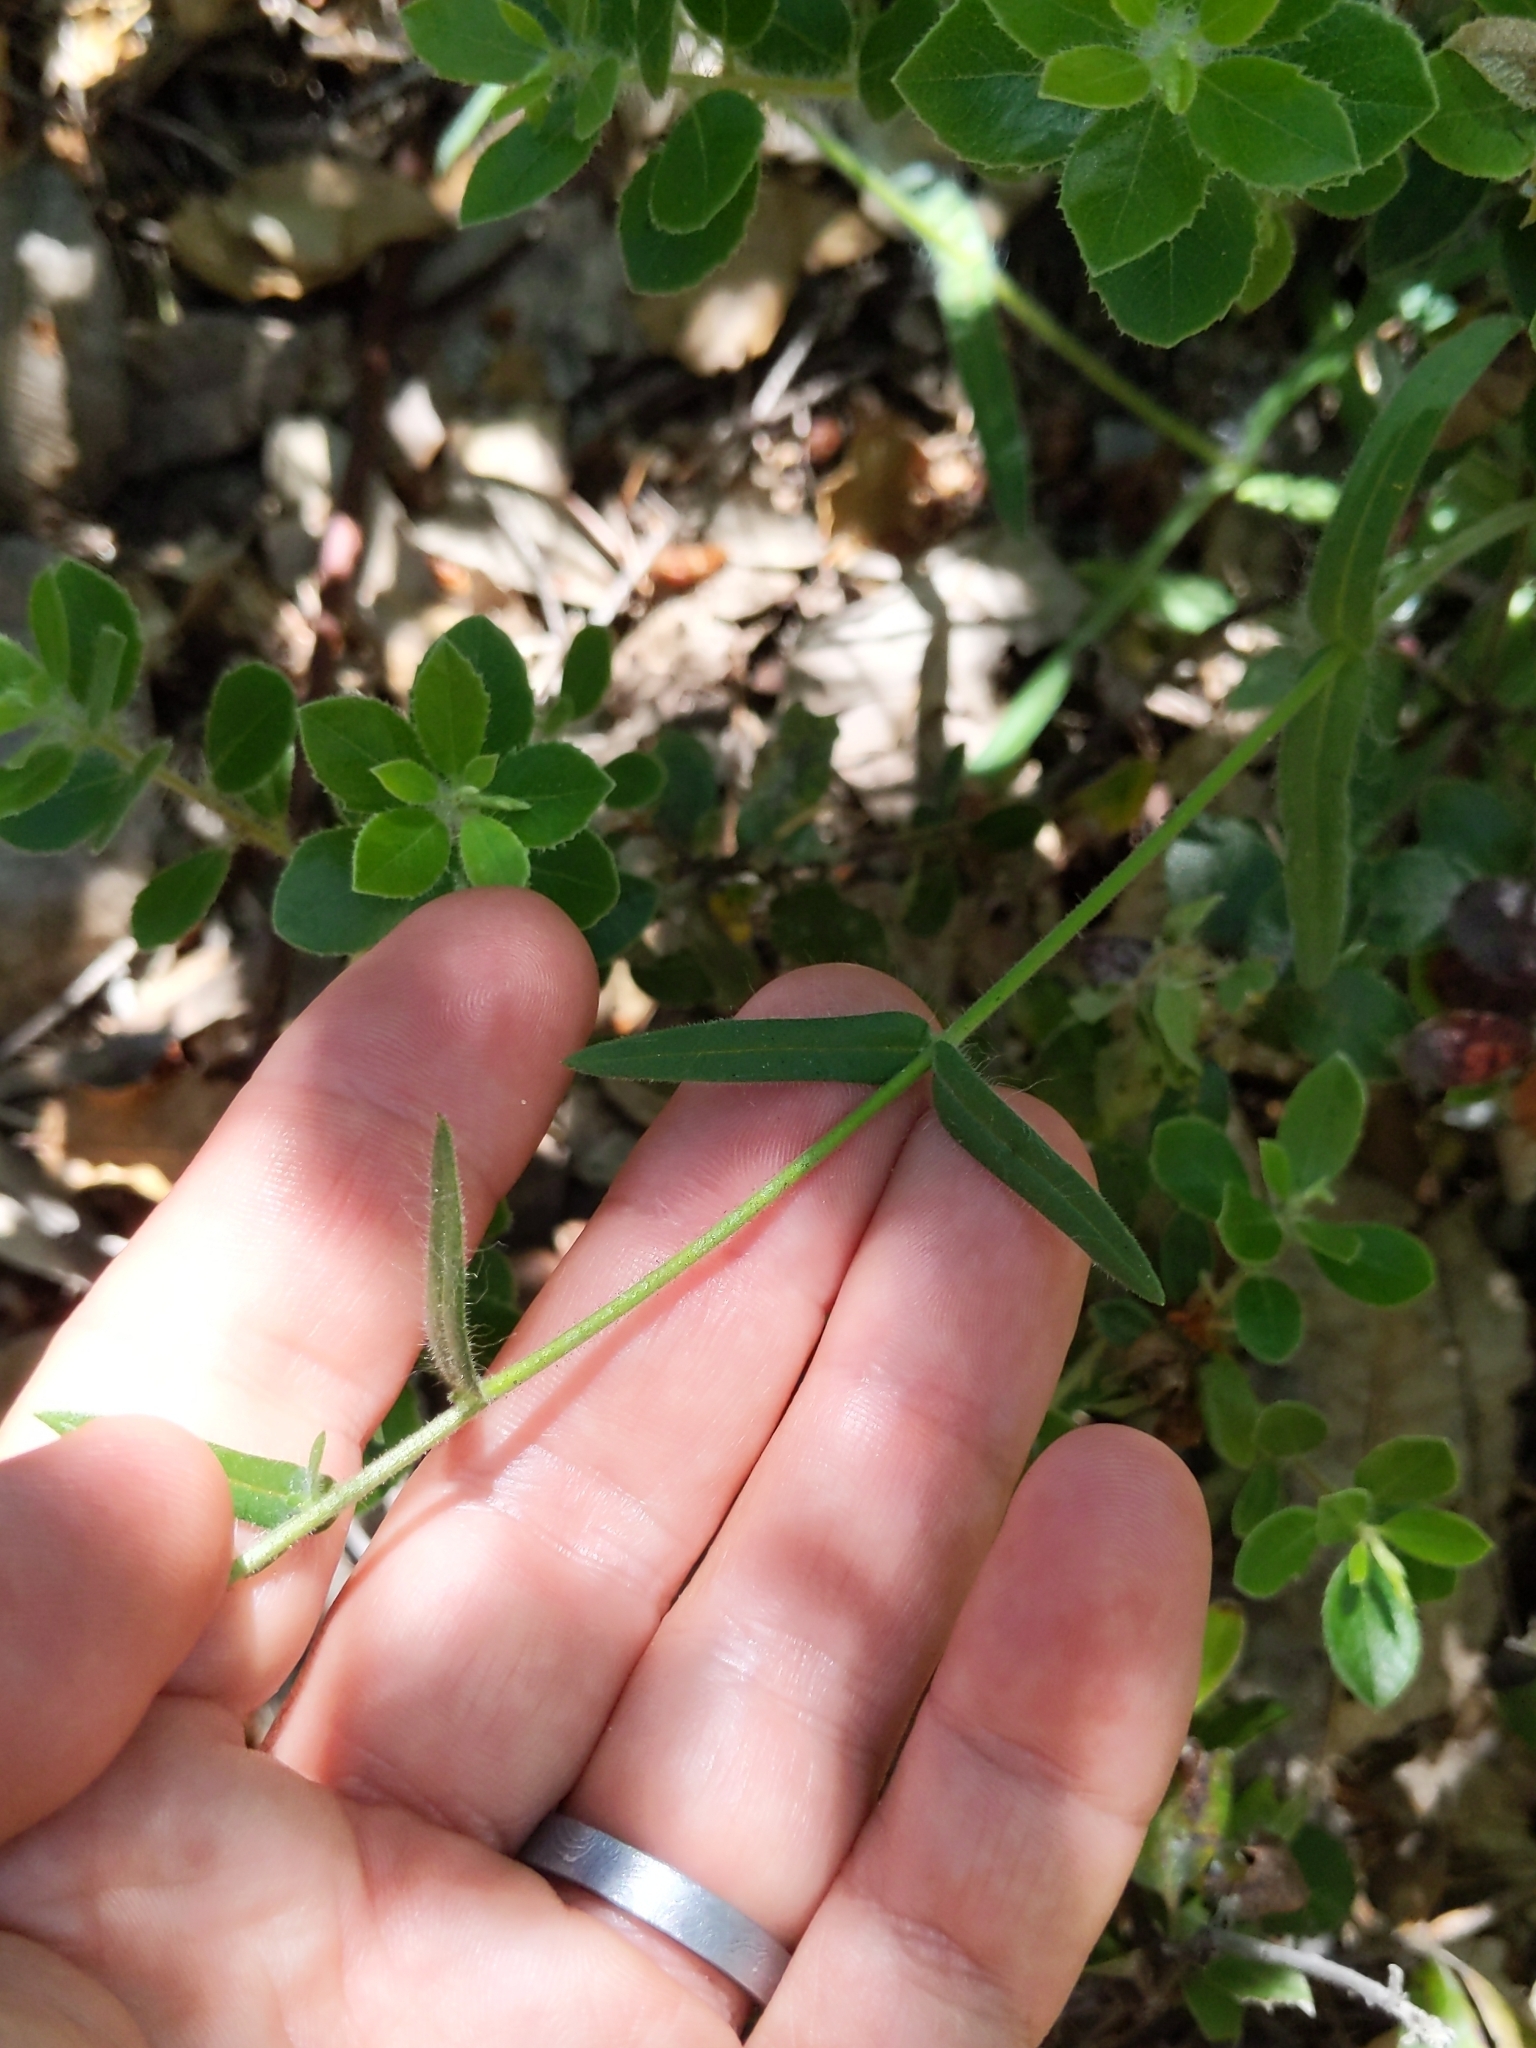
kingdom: Plantae
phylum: Tracheophyta
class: Magnoliopsida
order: Asterales
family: Asteraceae
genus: Anisocarpus
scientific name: Anisocarpus madioides
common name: Woodland madia
